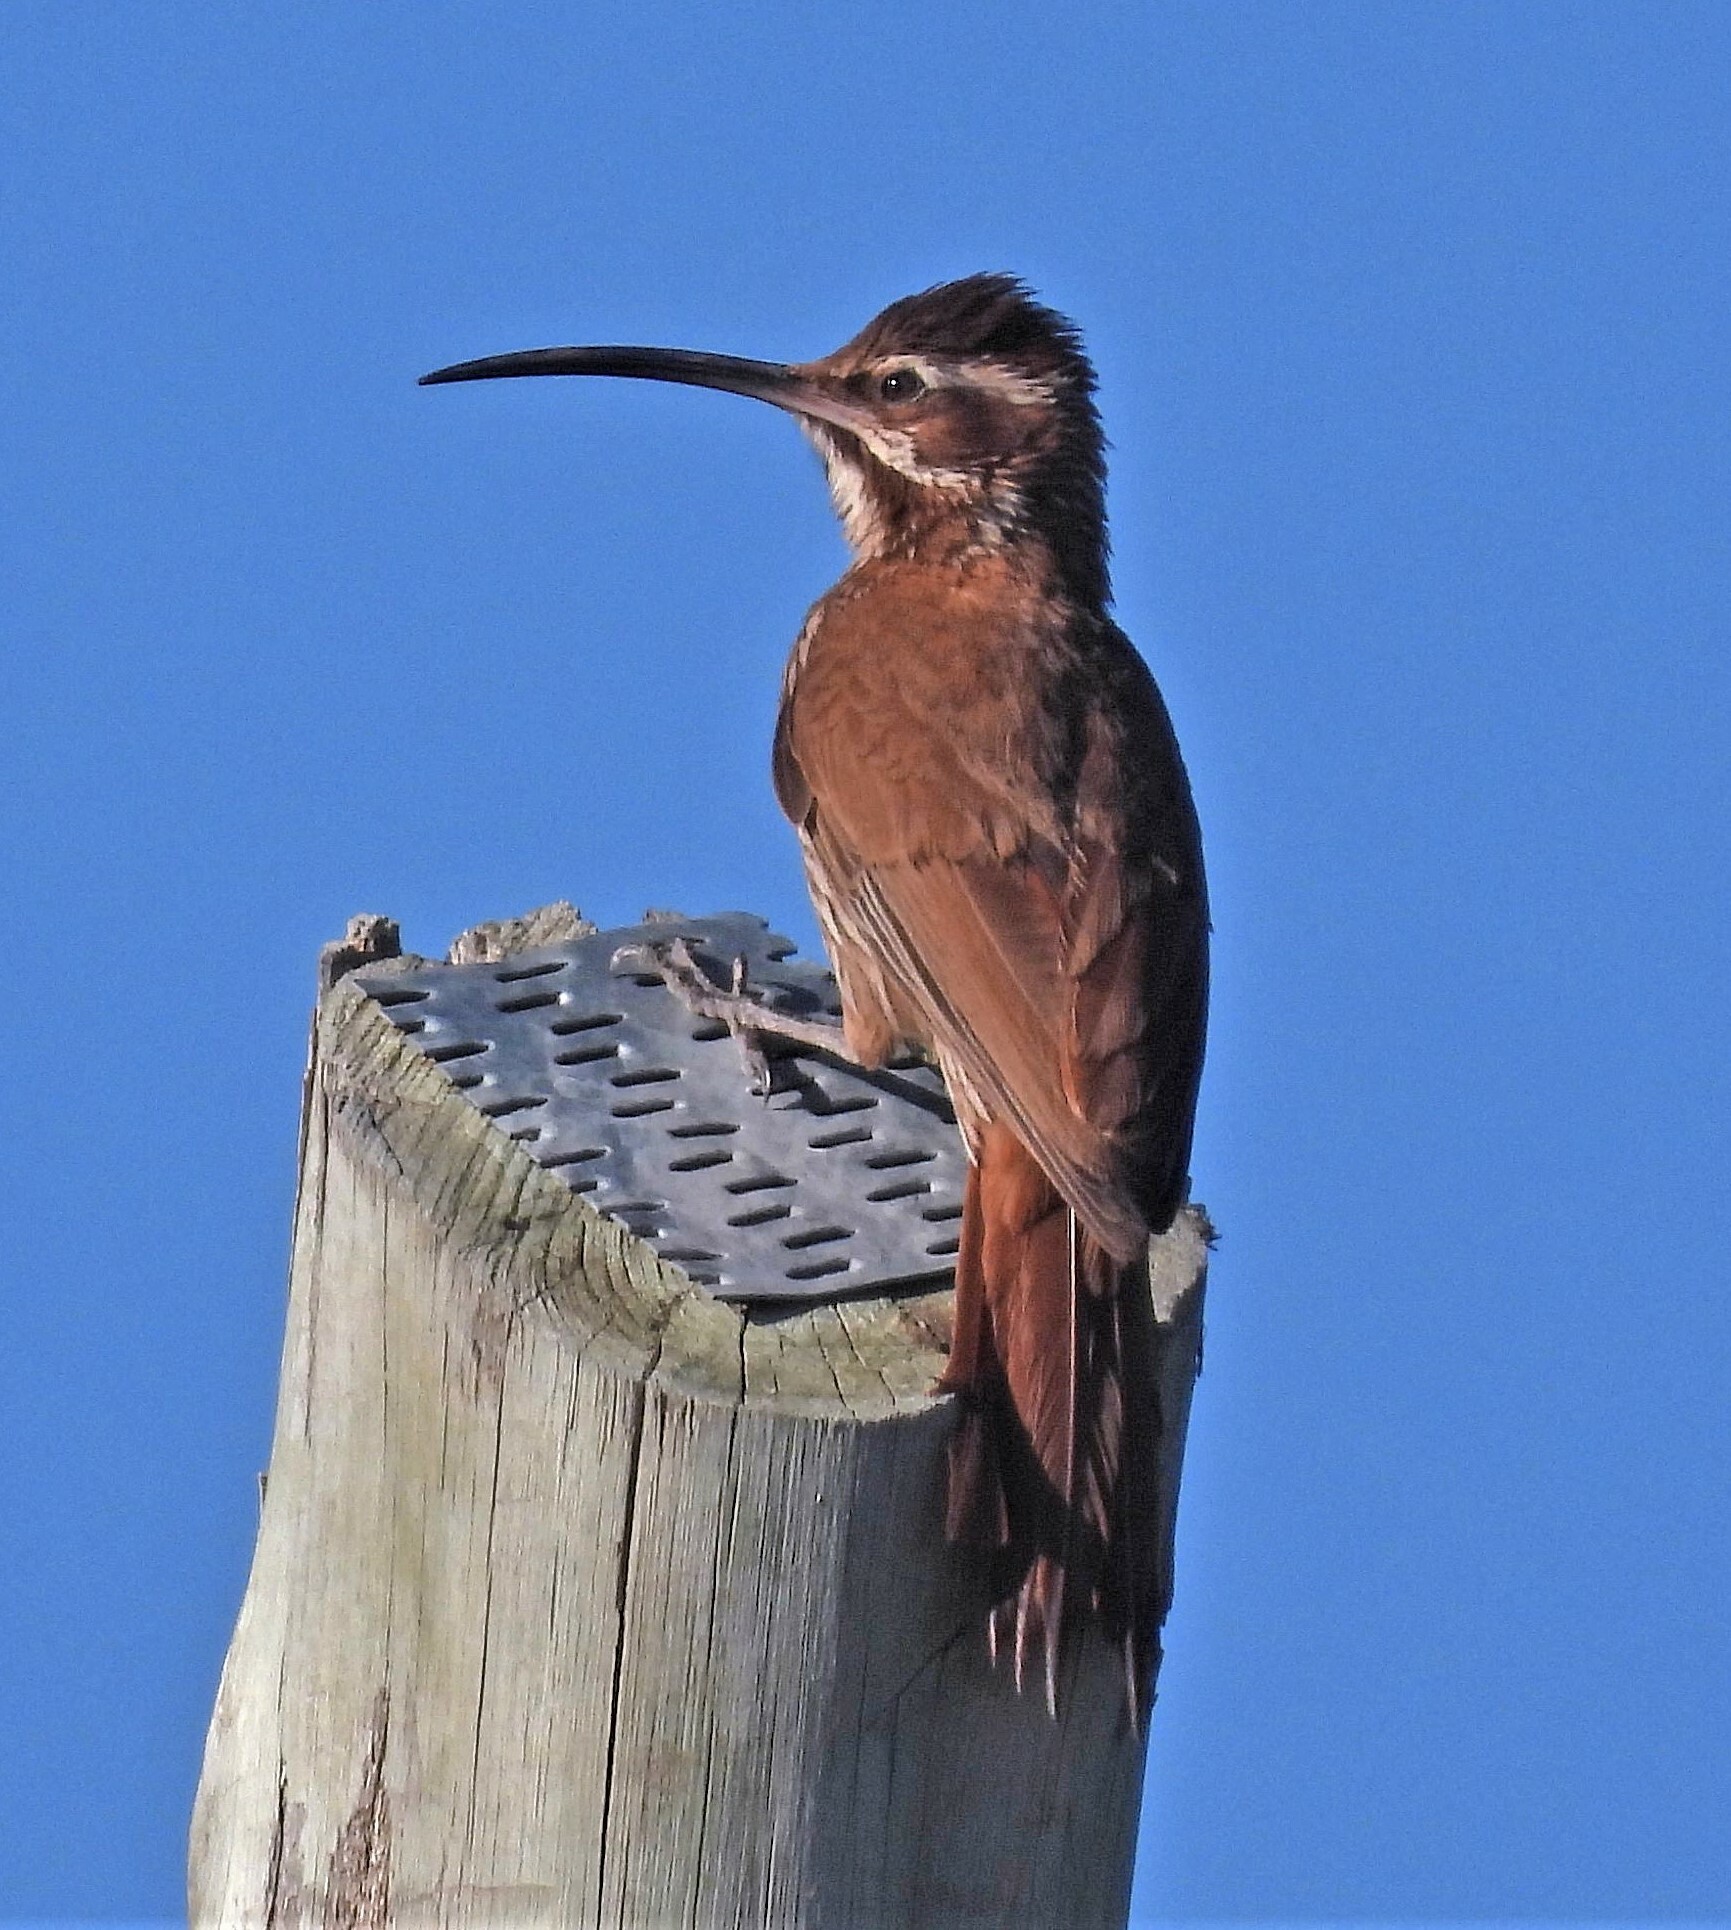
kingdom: Animalia
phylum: Chordata
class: Aves
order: Passeriformes
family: Furnariidae
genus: Drymornis
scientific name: Drymornis bridgesii
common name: Scimitar-billed woodcreeper
